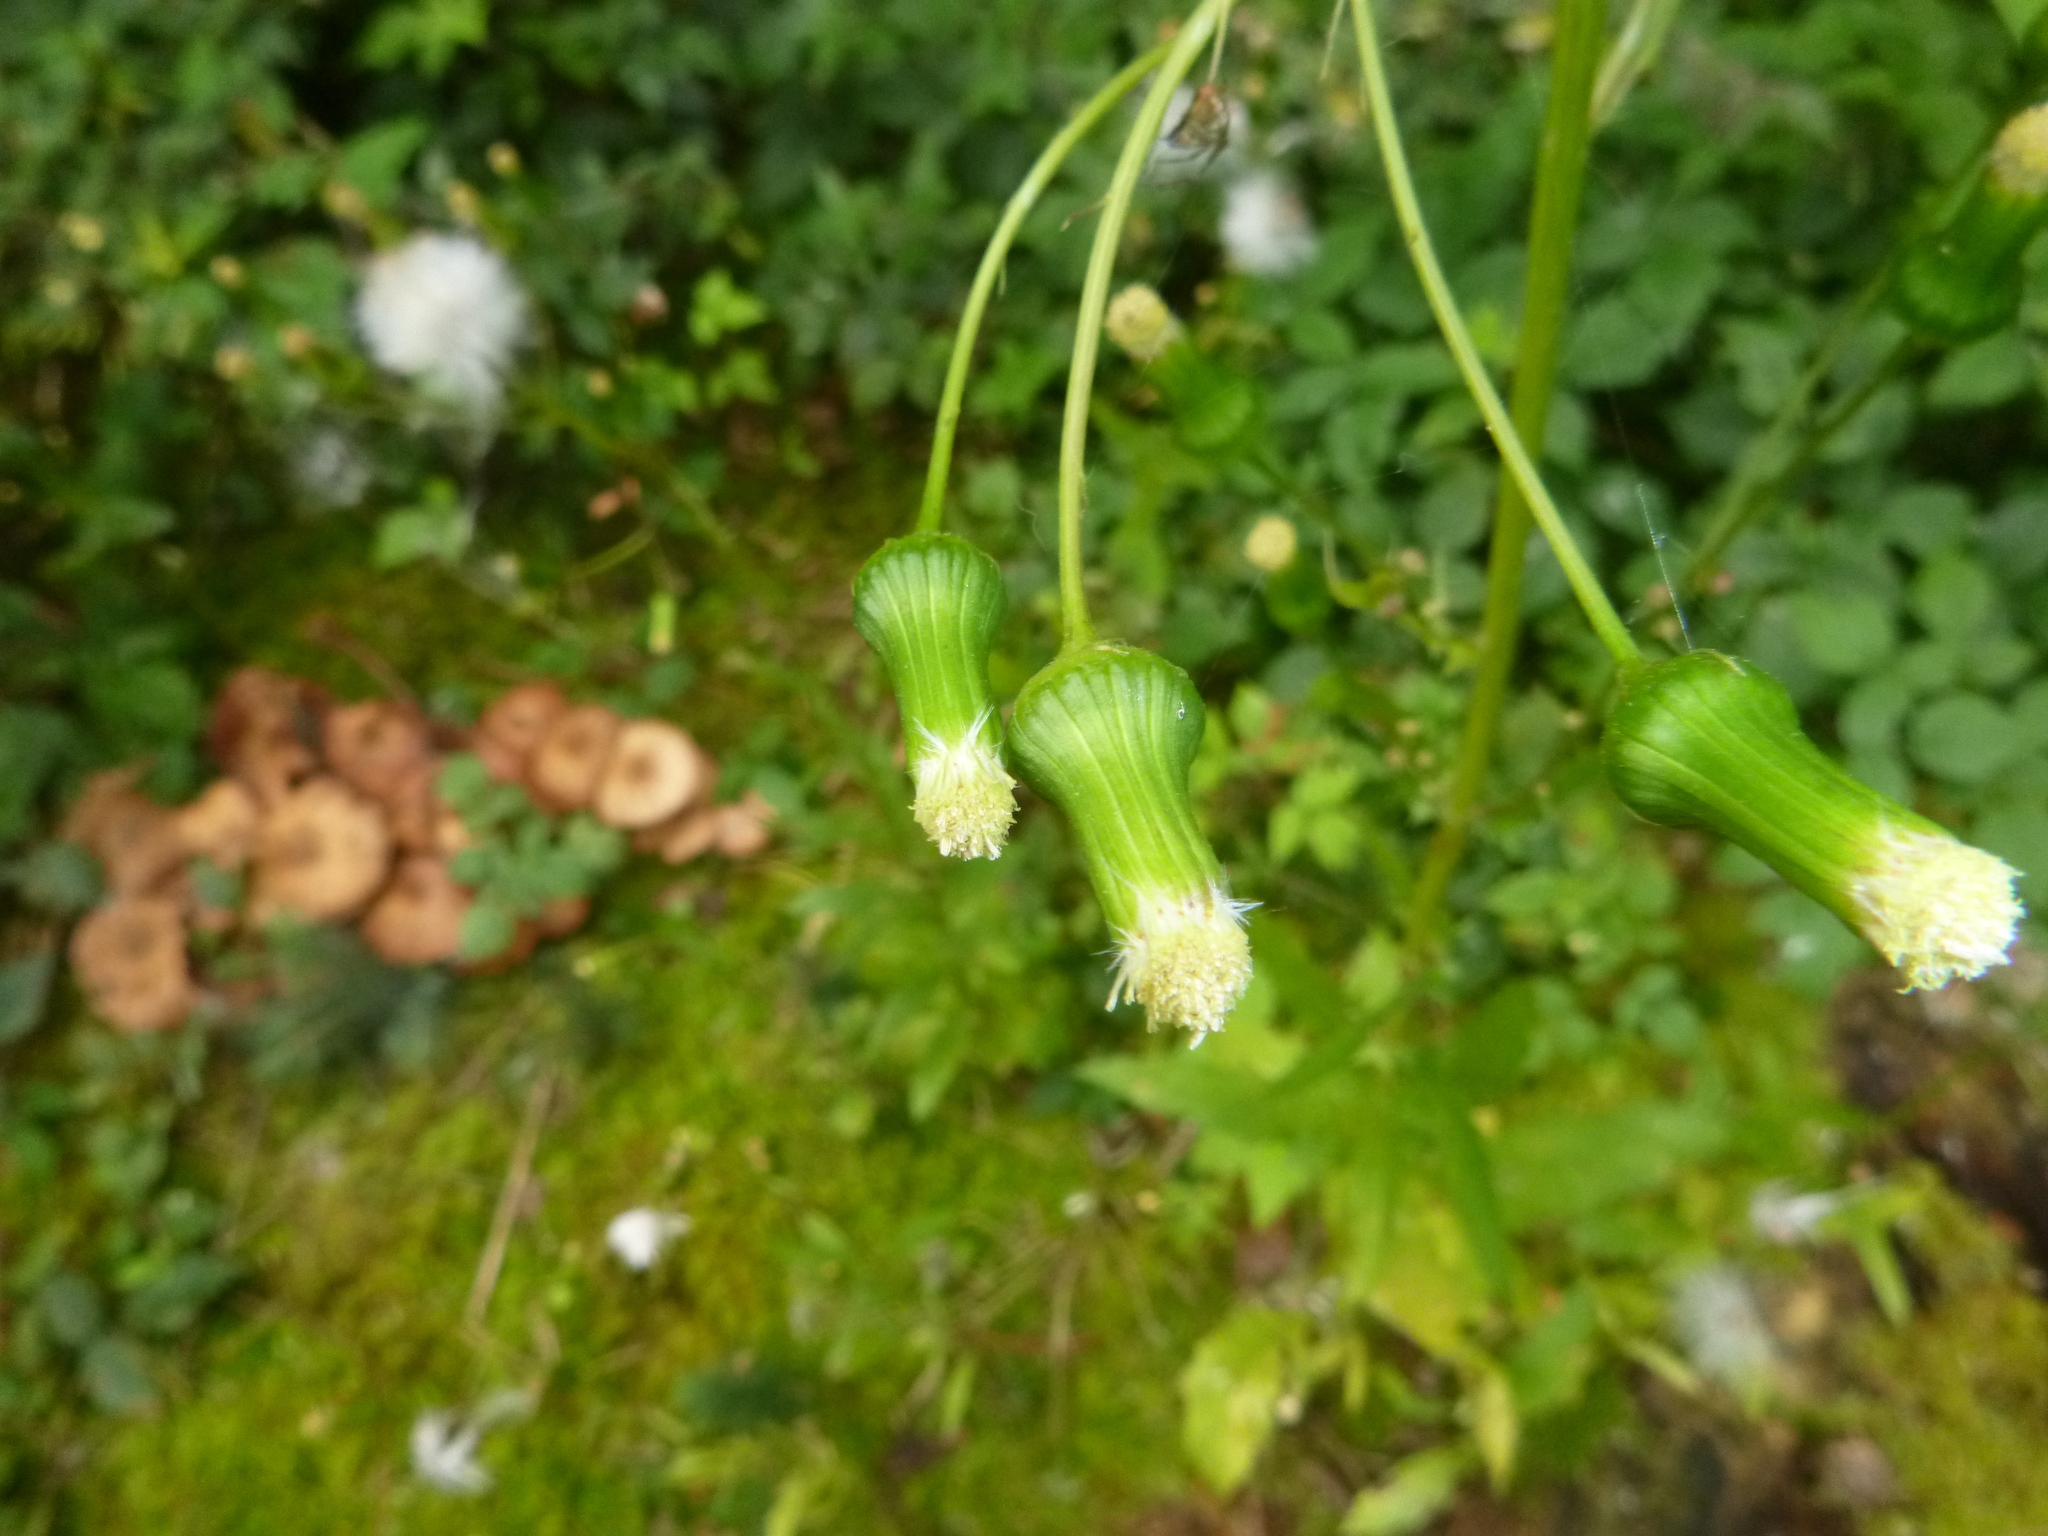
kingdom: Plantae
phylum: Tracheophyta
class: Magnoliopsida
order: Asterales
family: Asteraceae
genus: Erechtites
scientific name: Erechtites hieraciifolius
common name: American burnweed
